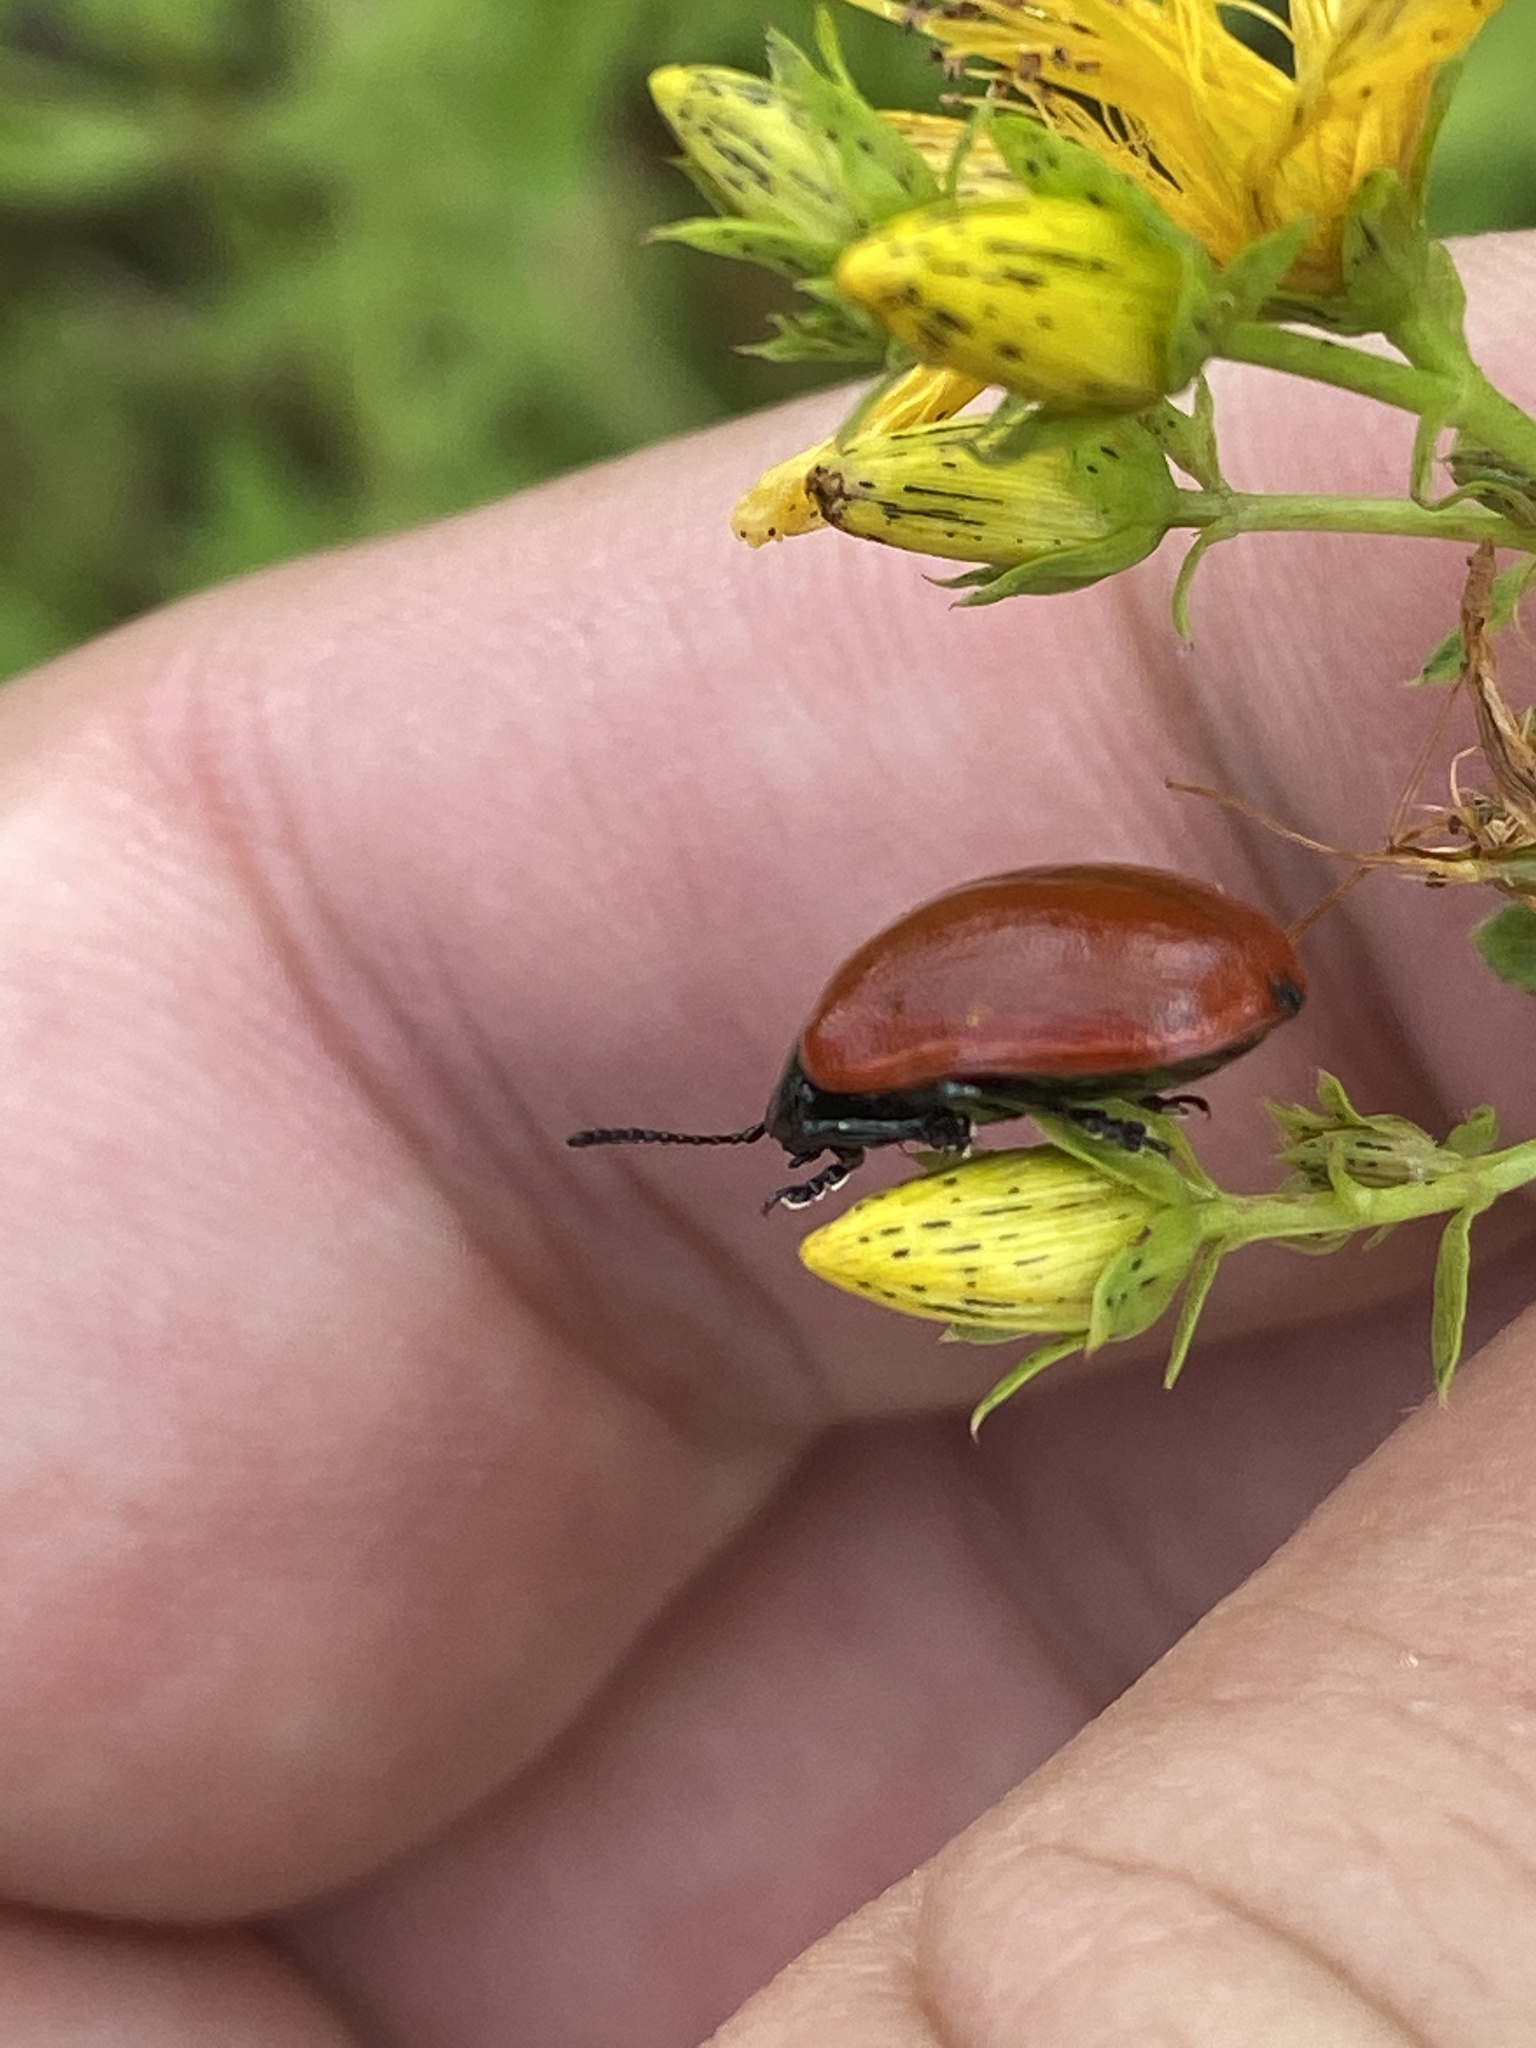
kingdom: Animalia
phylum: Arthropoda
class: Insecta
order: Coleoptera
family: Chrysomelidae
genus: Chrysomela
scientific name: Chrysomela populi
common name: Red poplar leaf beetle
